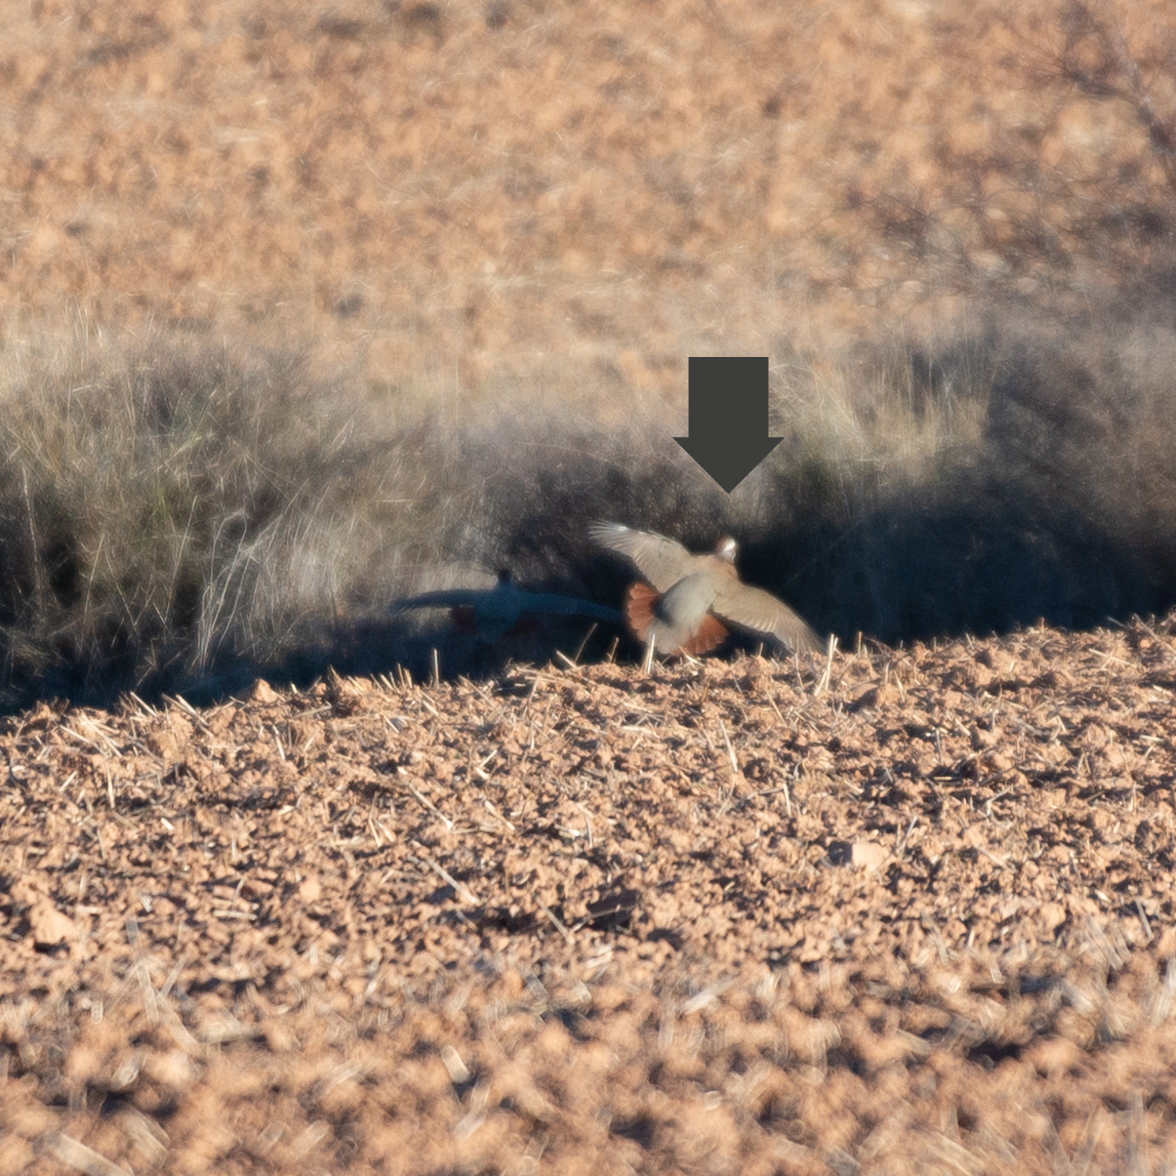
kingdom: Animalia
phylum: Chordata
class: Aves
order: Galliformes
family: Phasianidae
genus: Alectoris
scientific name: Alectoris rufa
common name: Red-legged partridge
